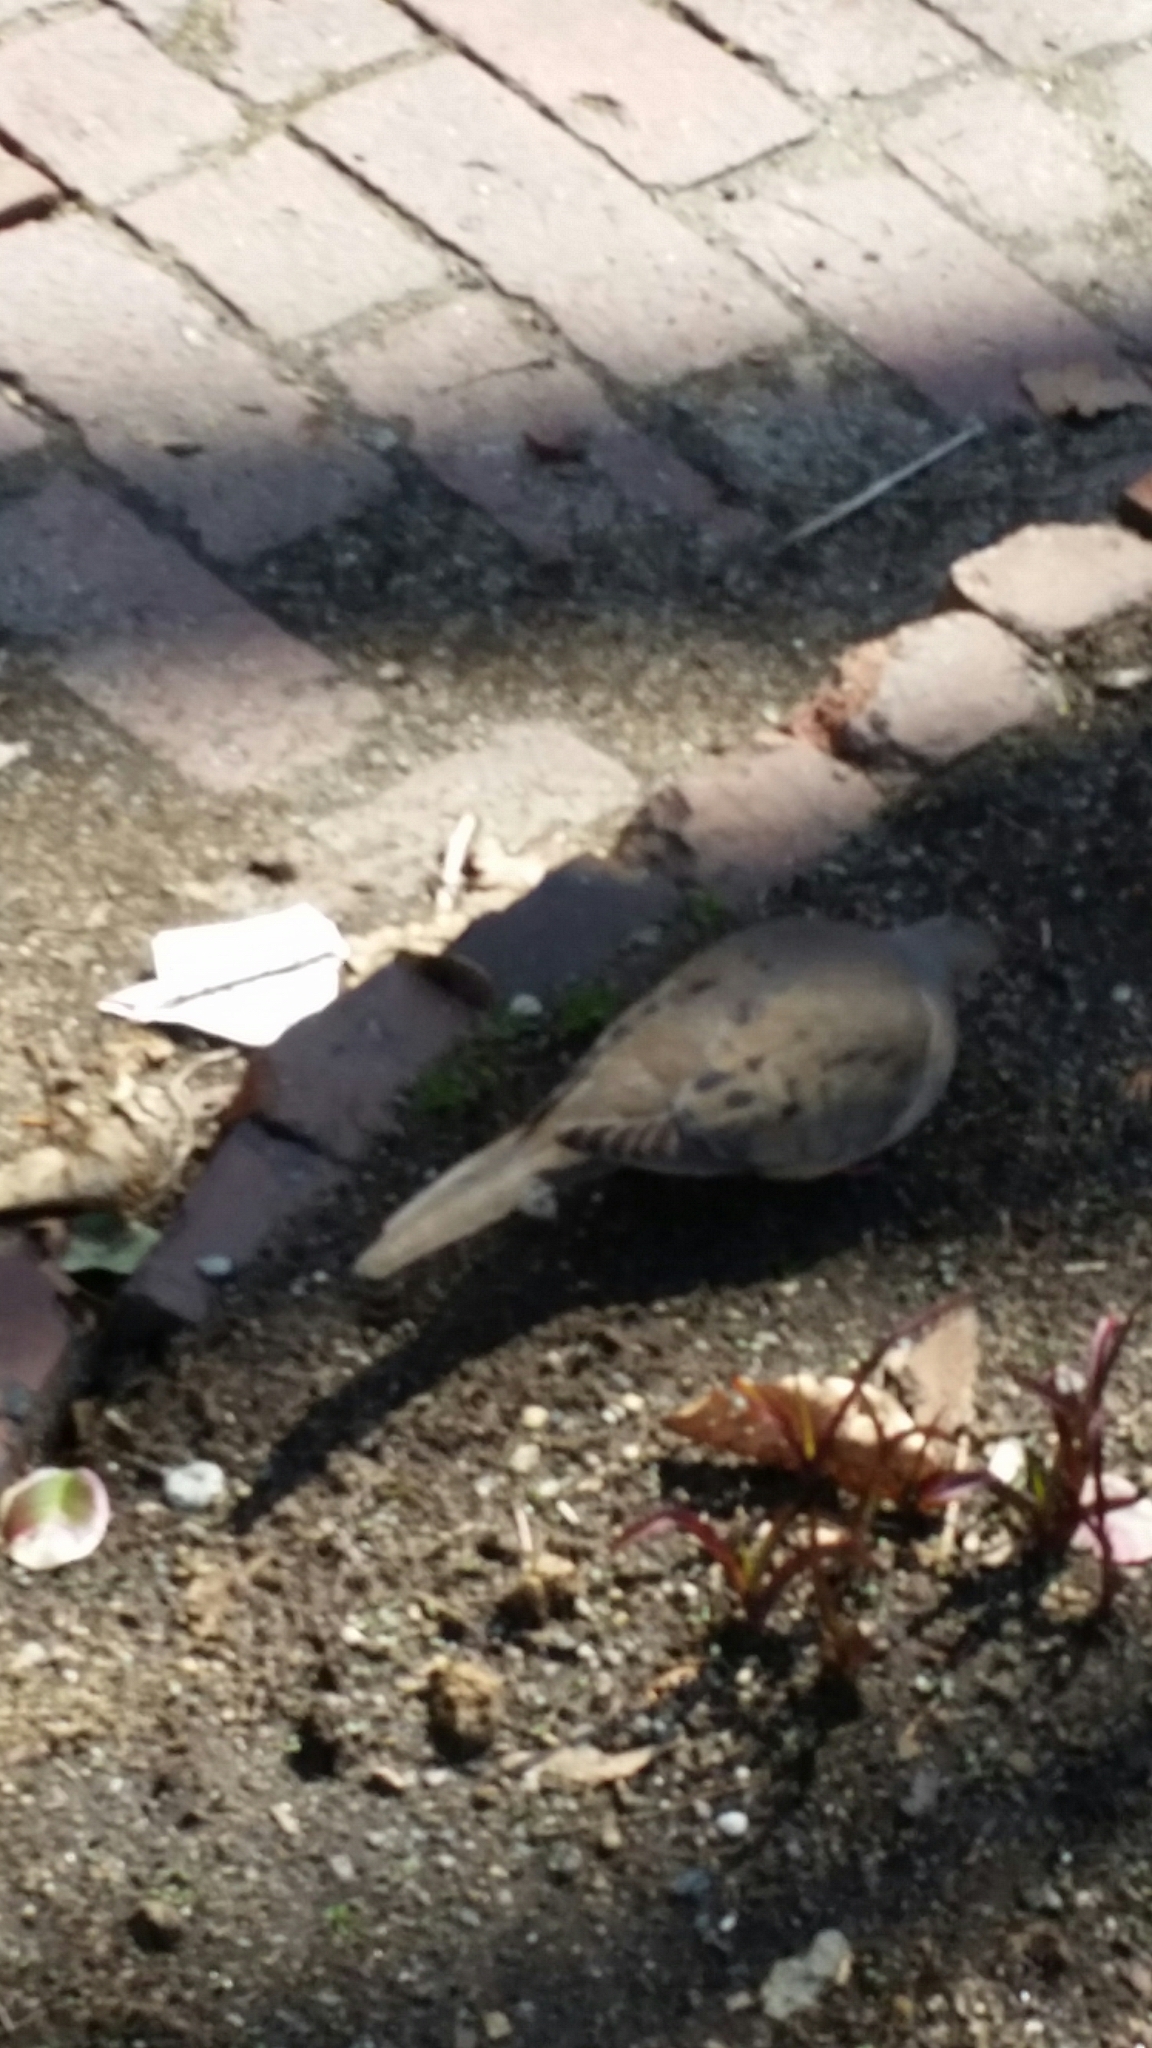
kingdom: Animalia
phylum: Chordata
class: Aves
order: Columbiformes
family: Columbidae
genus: Zenaida
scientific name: Zenaida macroura
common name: Mourning dove
